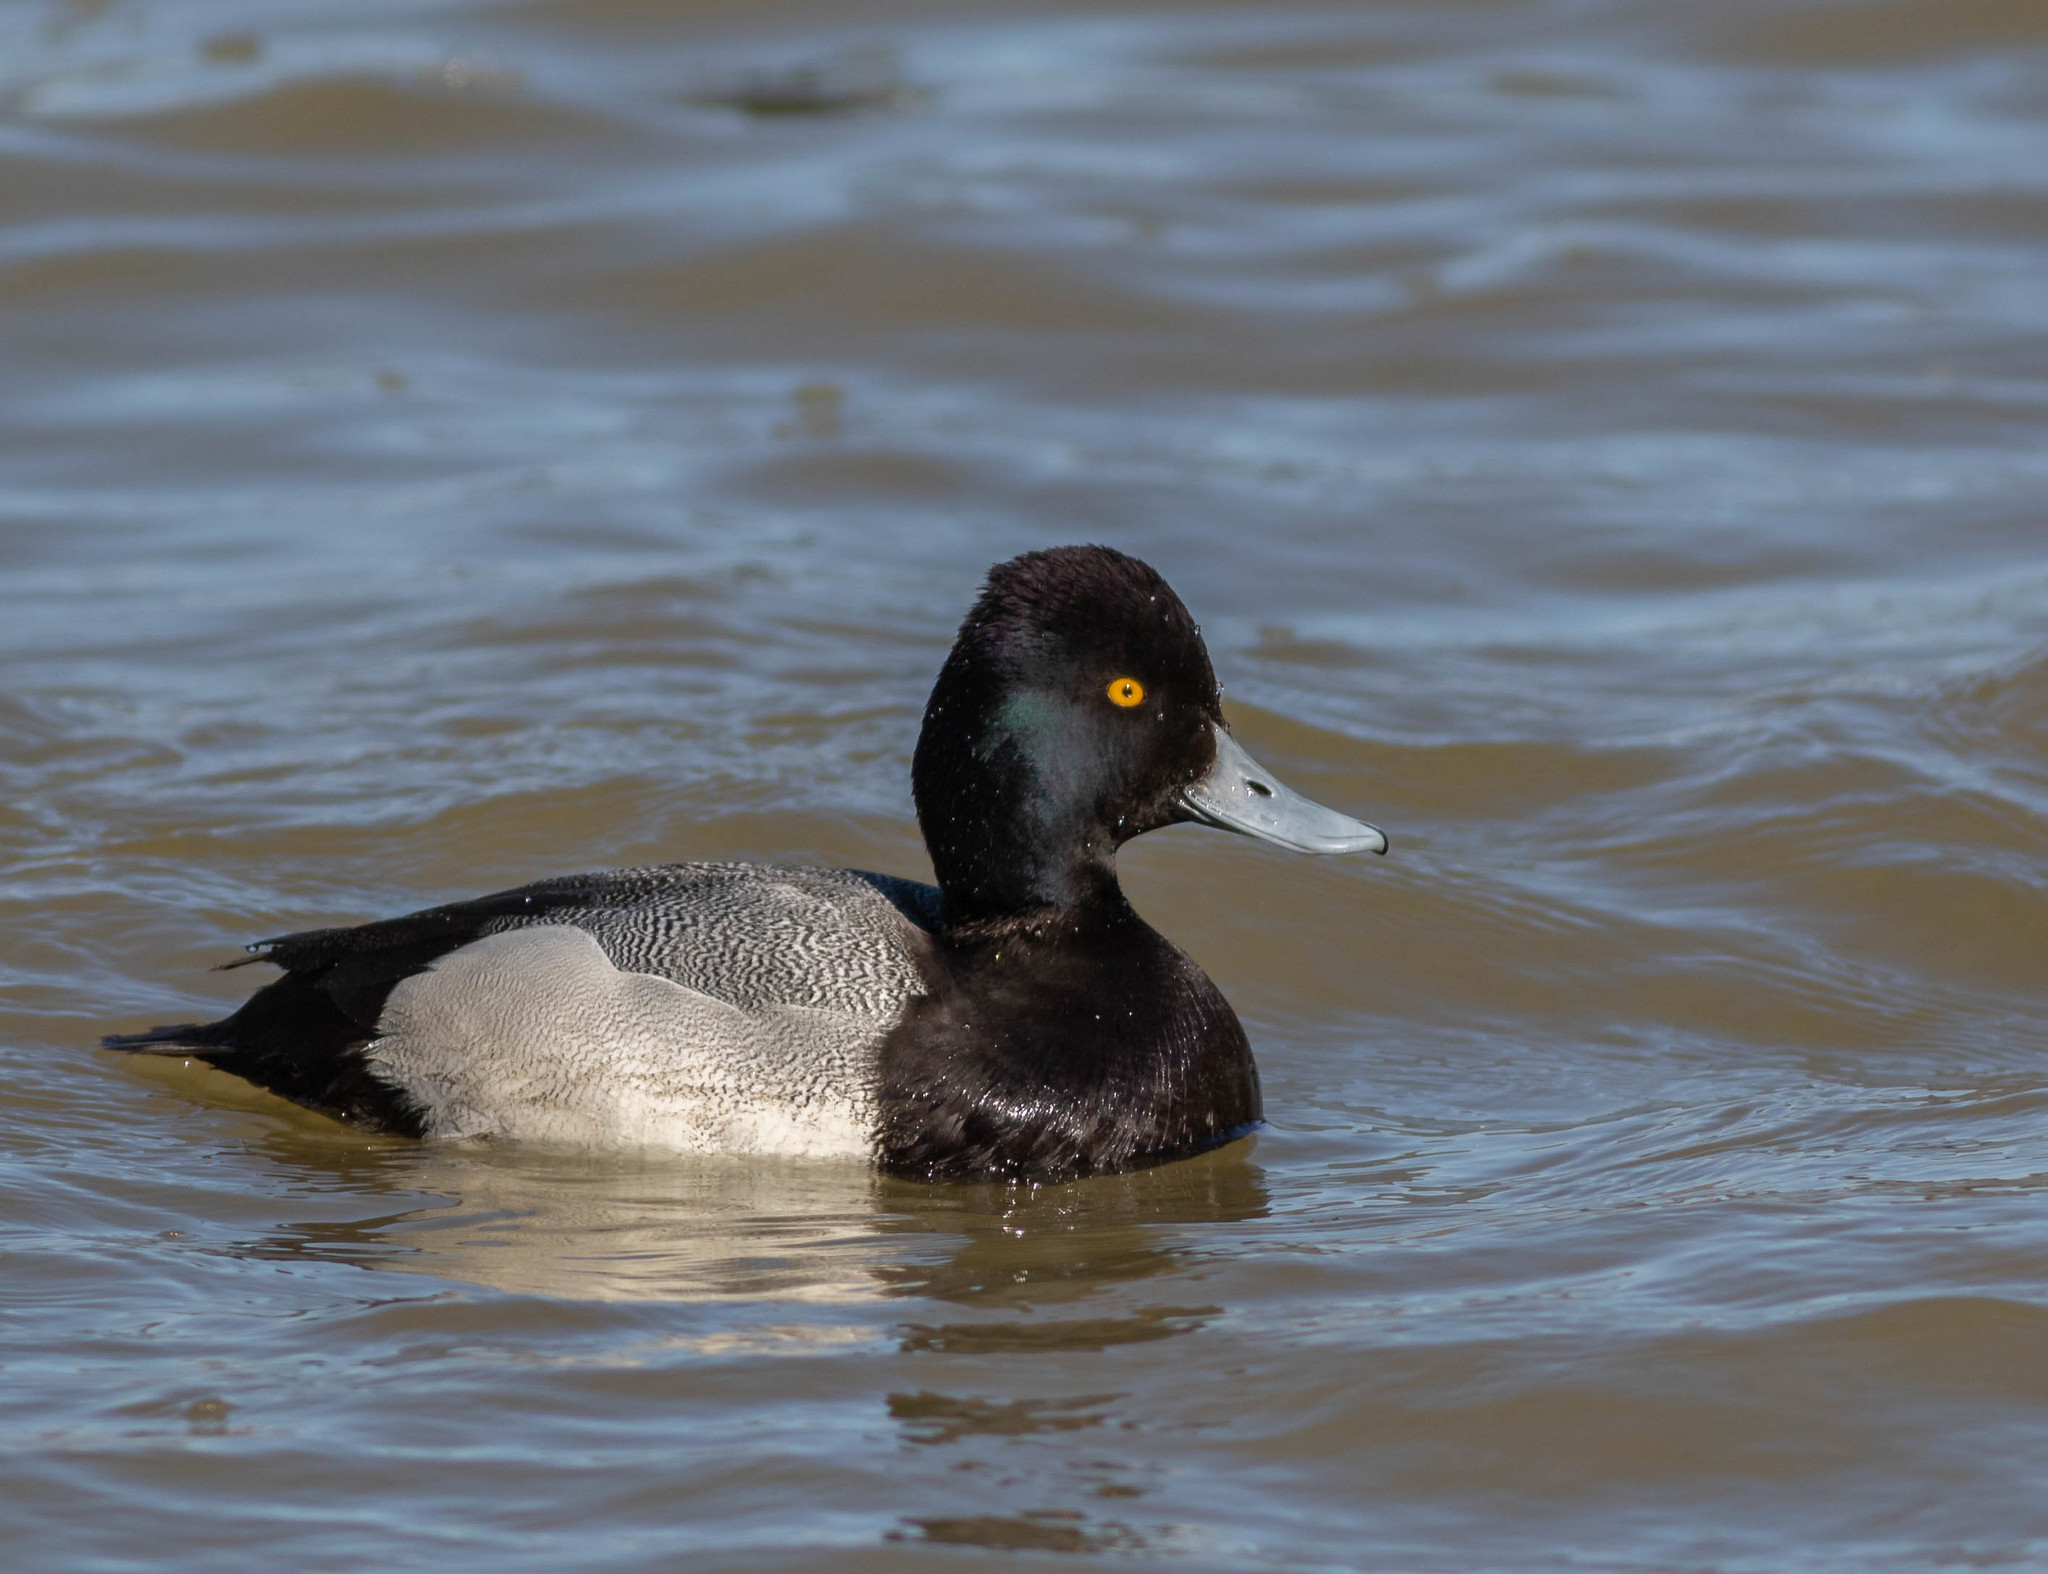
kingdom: Animalia
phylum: Chordata
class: Aves
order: Anseriformes
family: Anatidae
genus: Aythya
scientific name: Aythya affinis
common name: Lesser scaup
